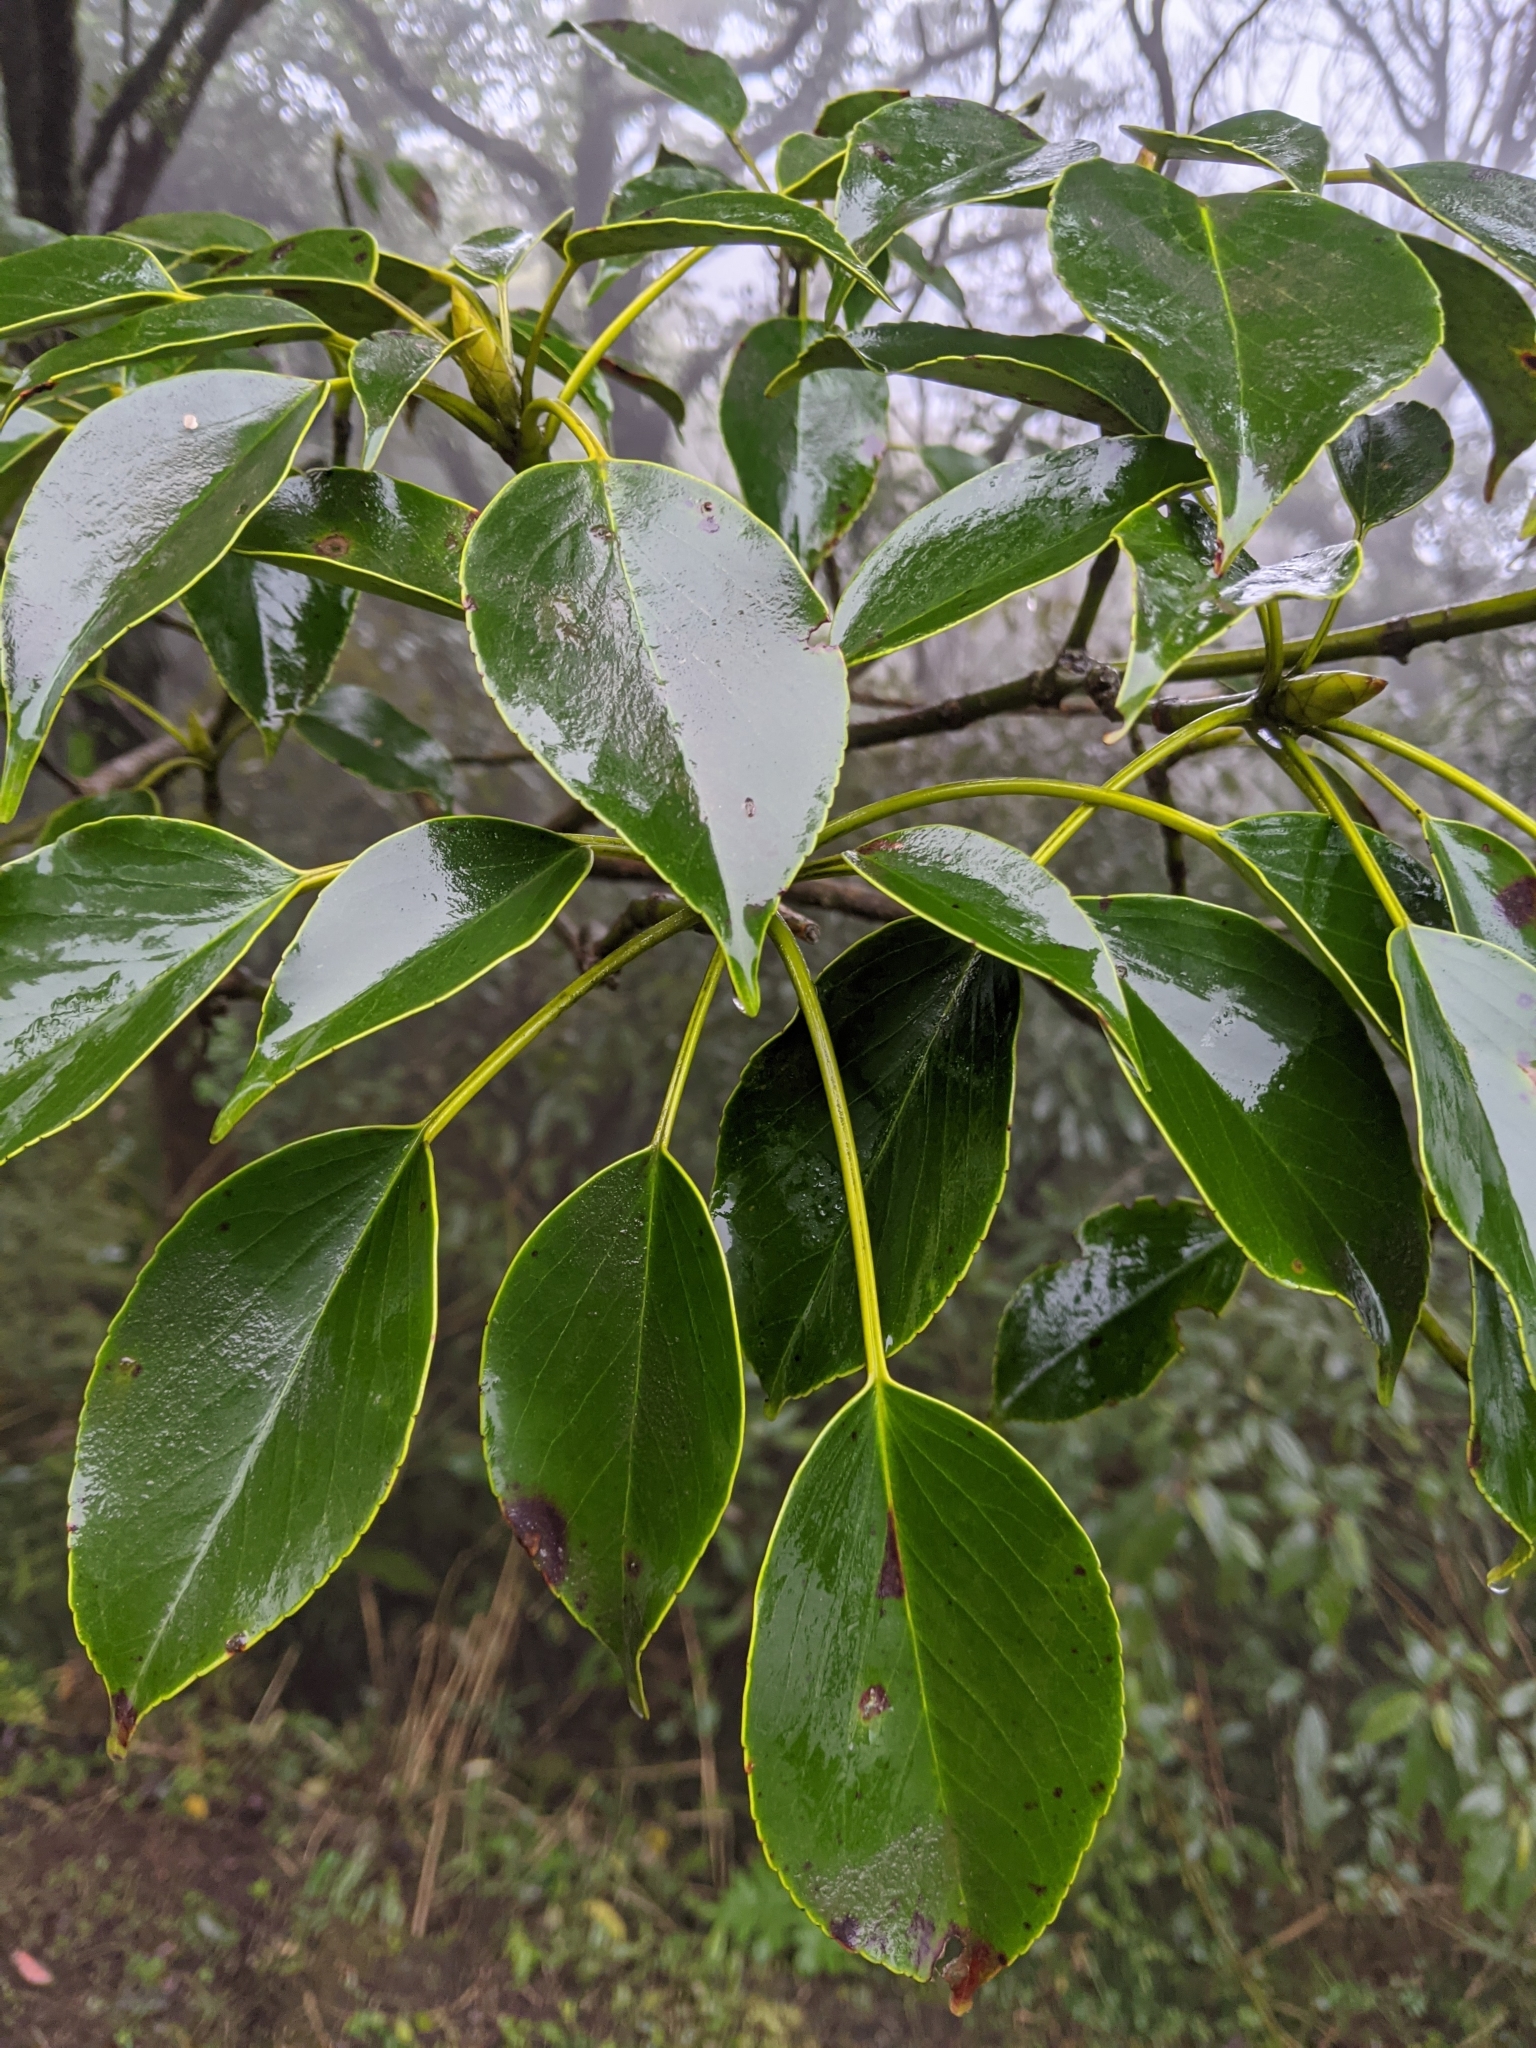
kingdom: Plantae
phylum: Tracheophyta
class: Magnoliopsida
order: Trochodendrales
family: Trochodendraceae
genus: Trochodendron
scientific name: Trochodendron aralioides
